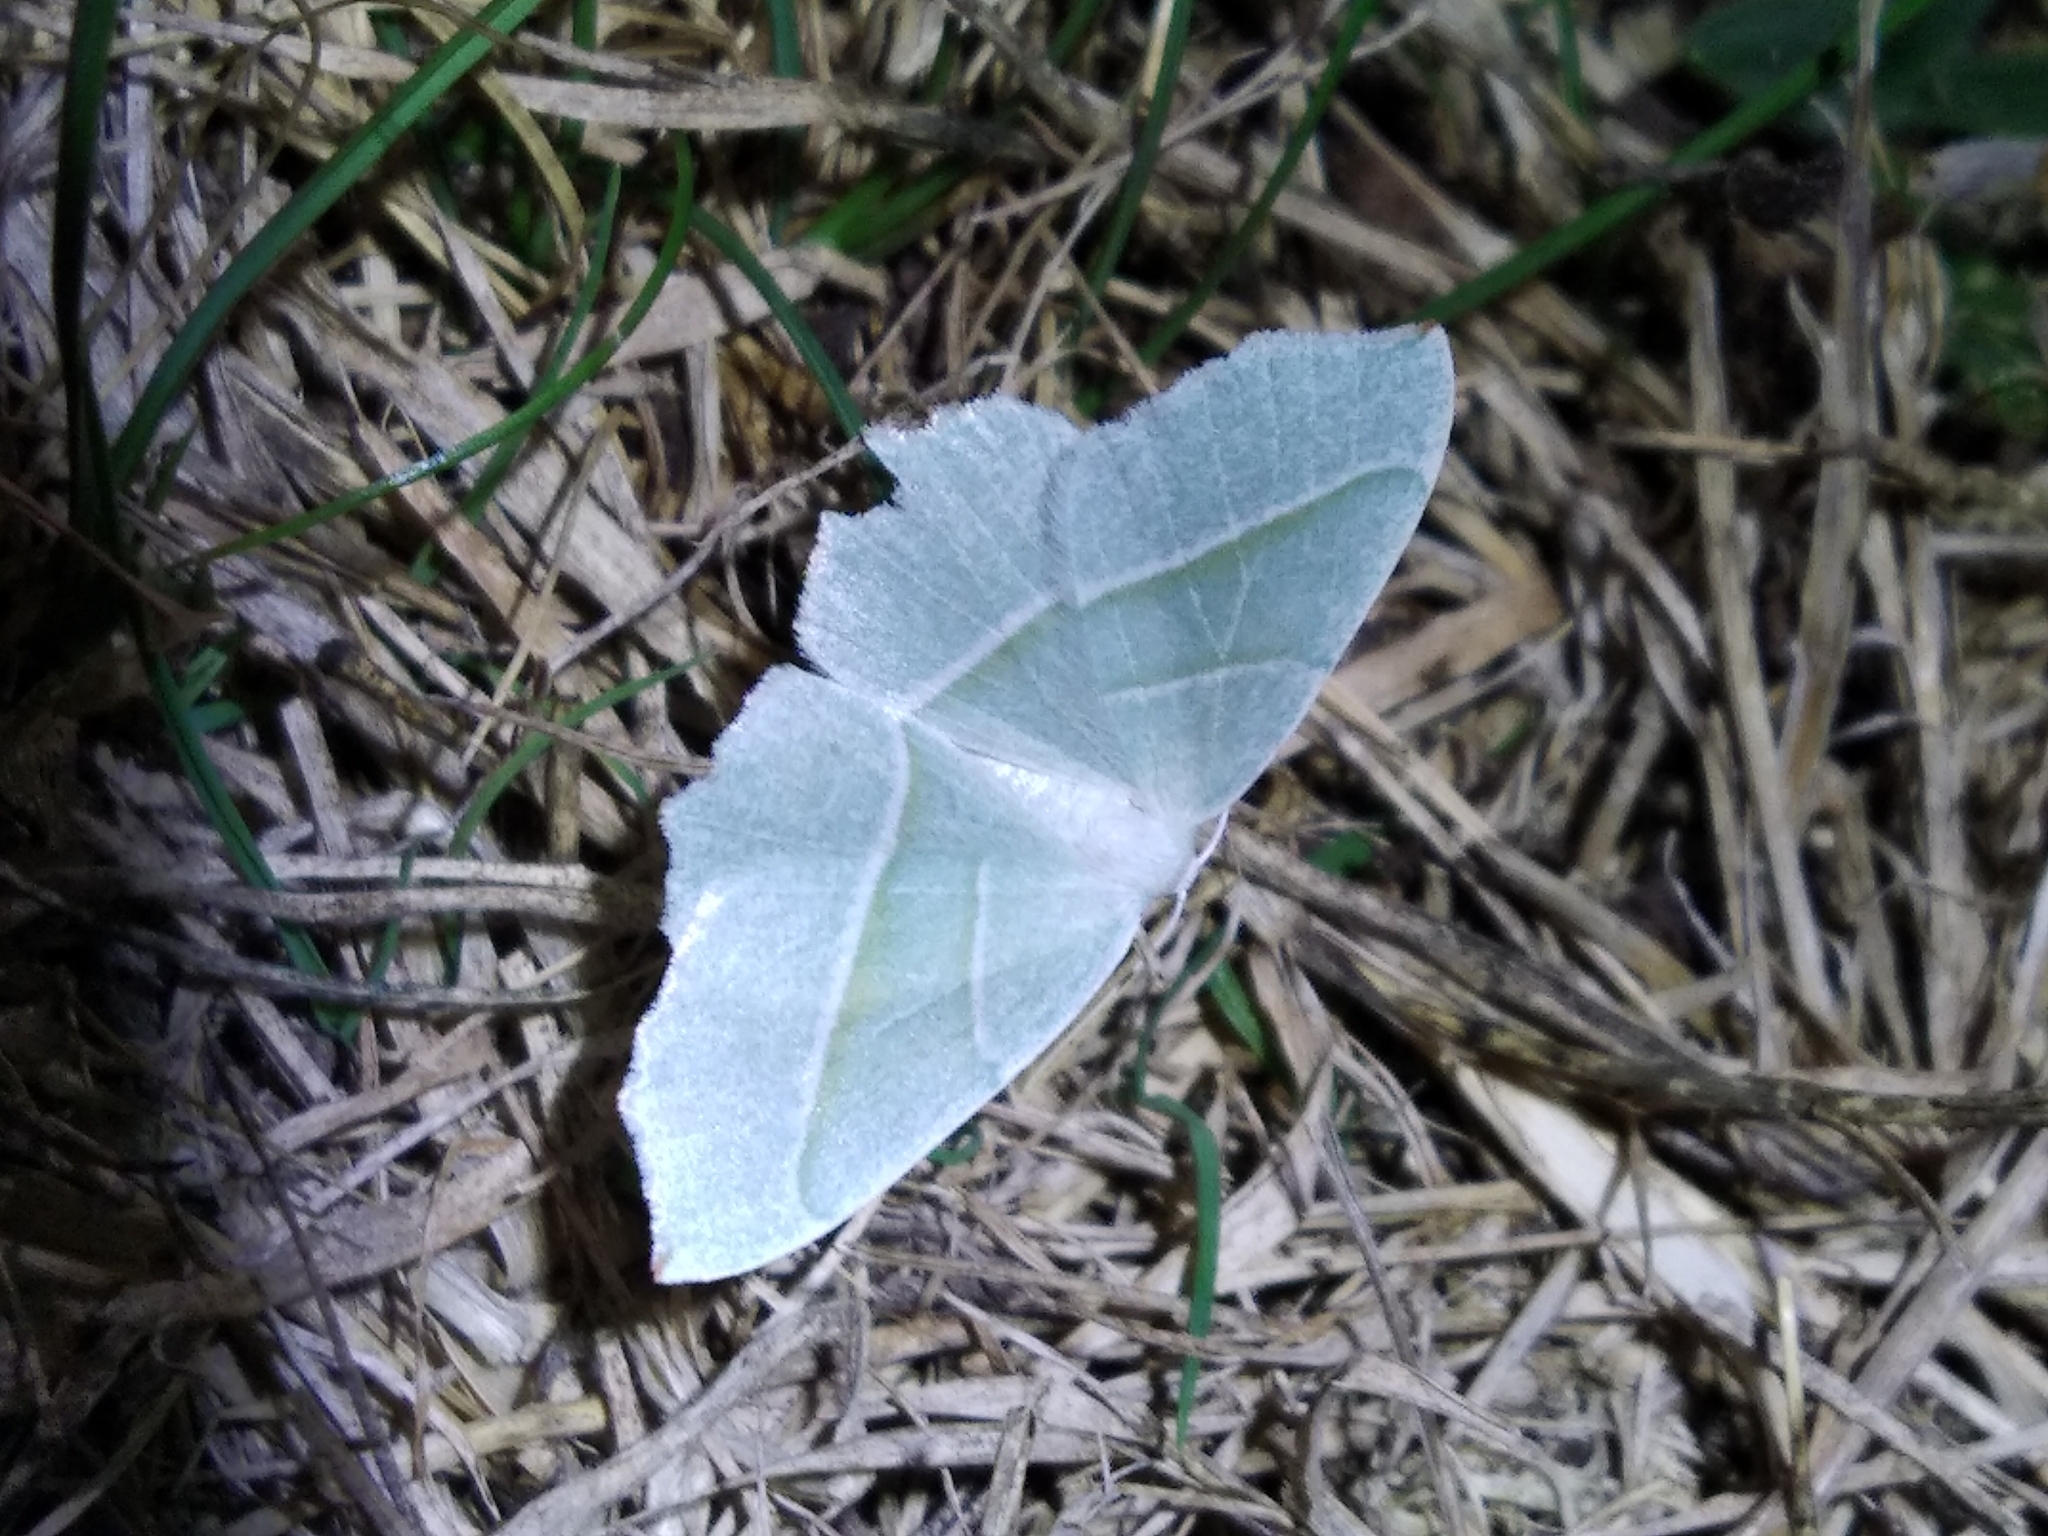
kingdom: Animalia
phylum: Arthropoda
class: Insecta
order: Lepidoptera
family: Geometridae
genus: Campaea
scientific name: Campaea margaritaria
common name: Light emerald
